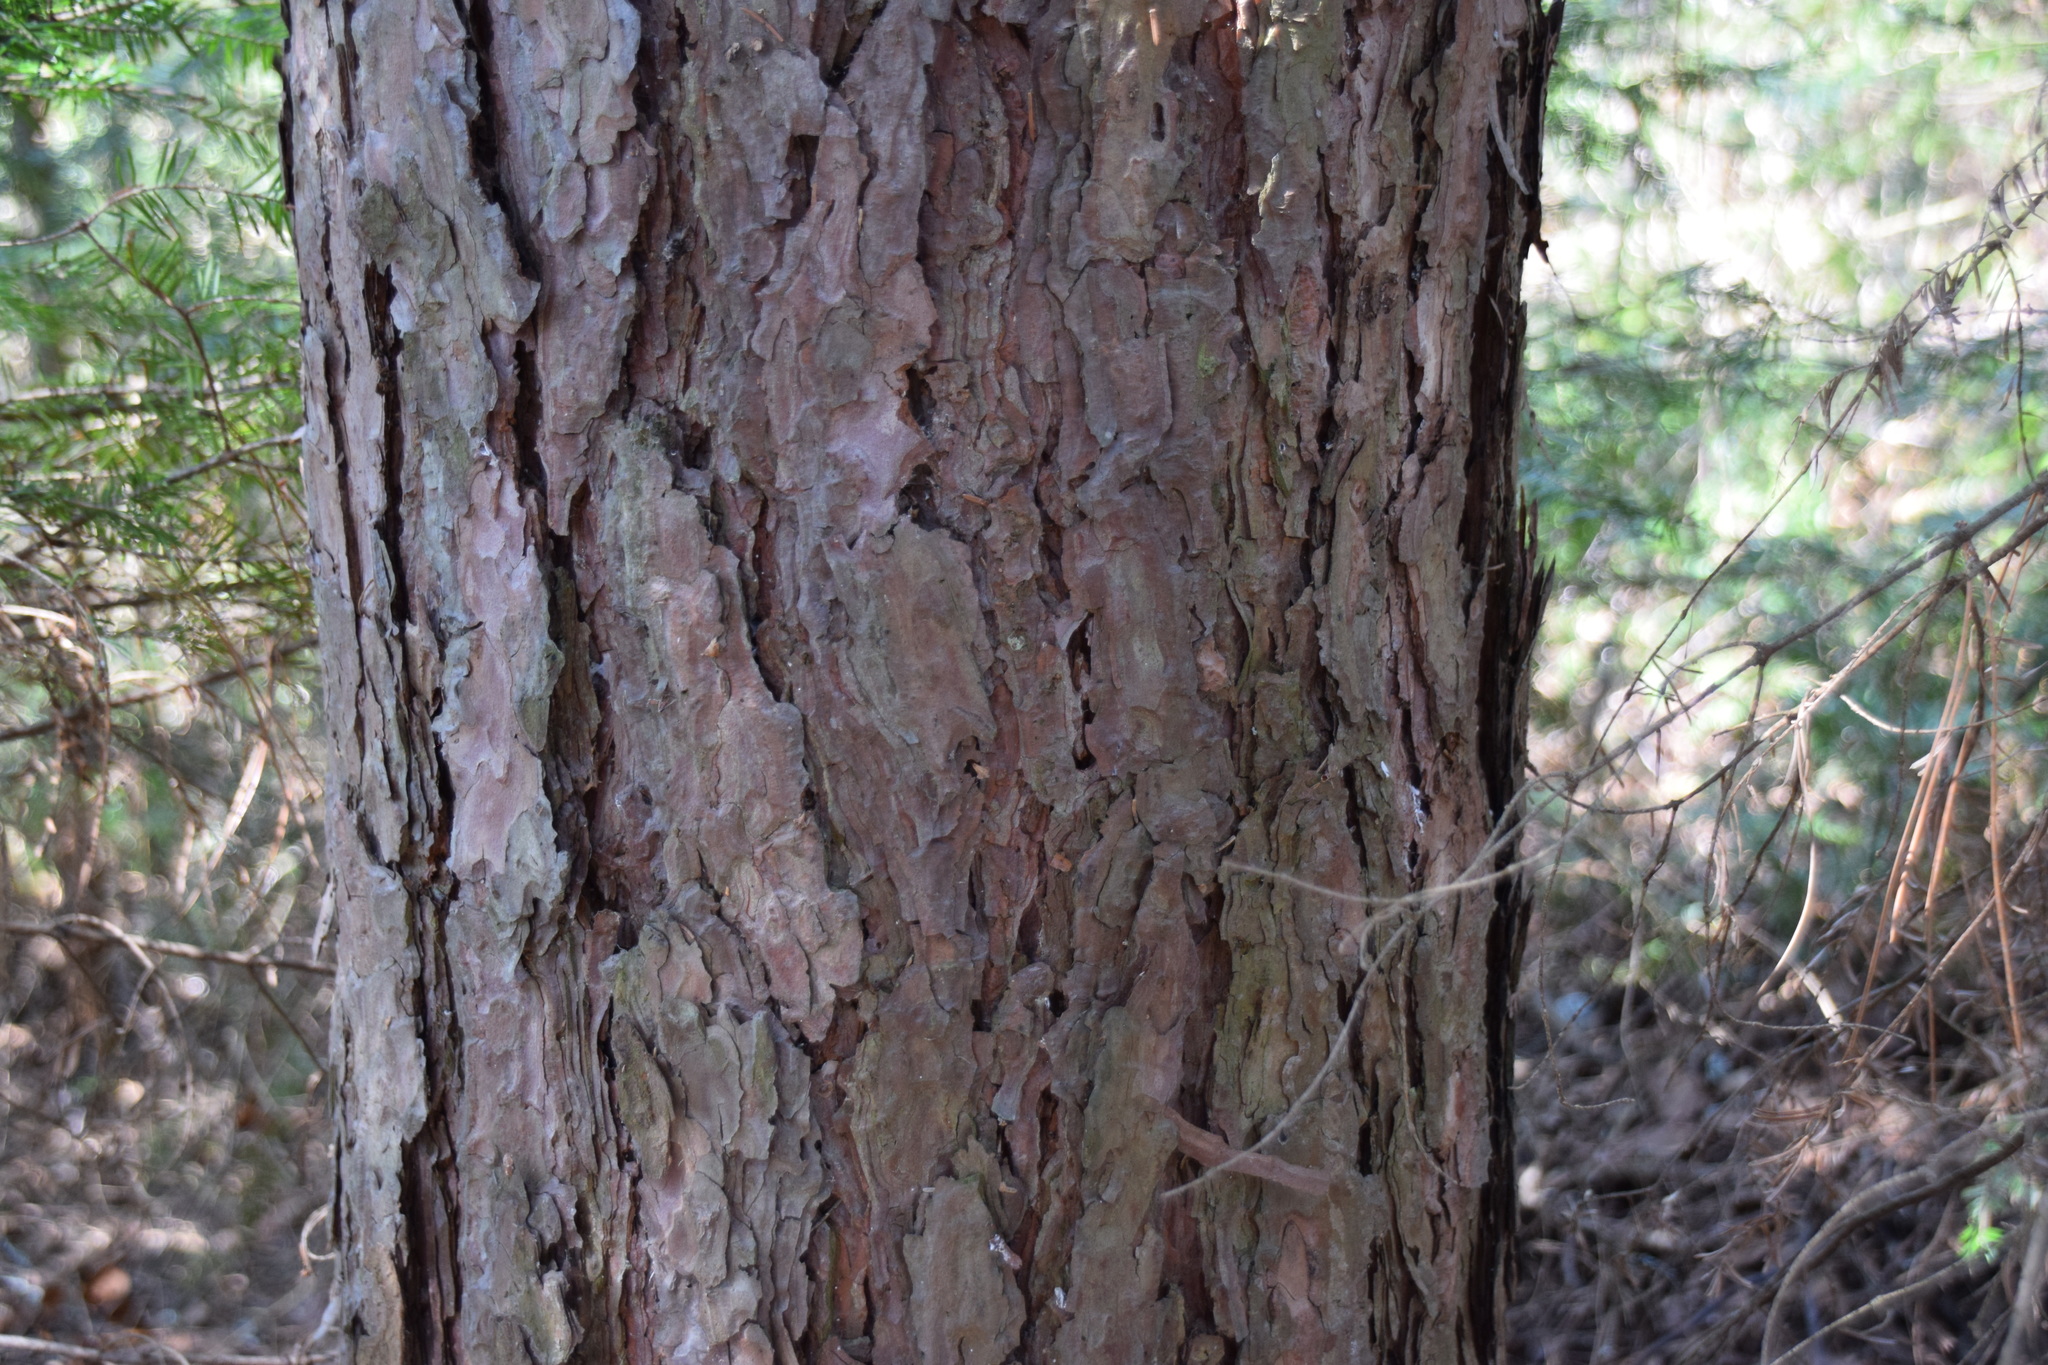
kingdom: Plantae
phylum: Tracheophyta
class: Pinopsida
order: Pinales
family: Pinaceae
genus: Pinus
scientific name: Pinus resinosa
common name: Norway pine
